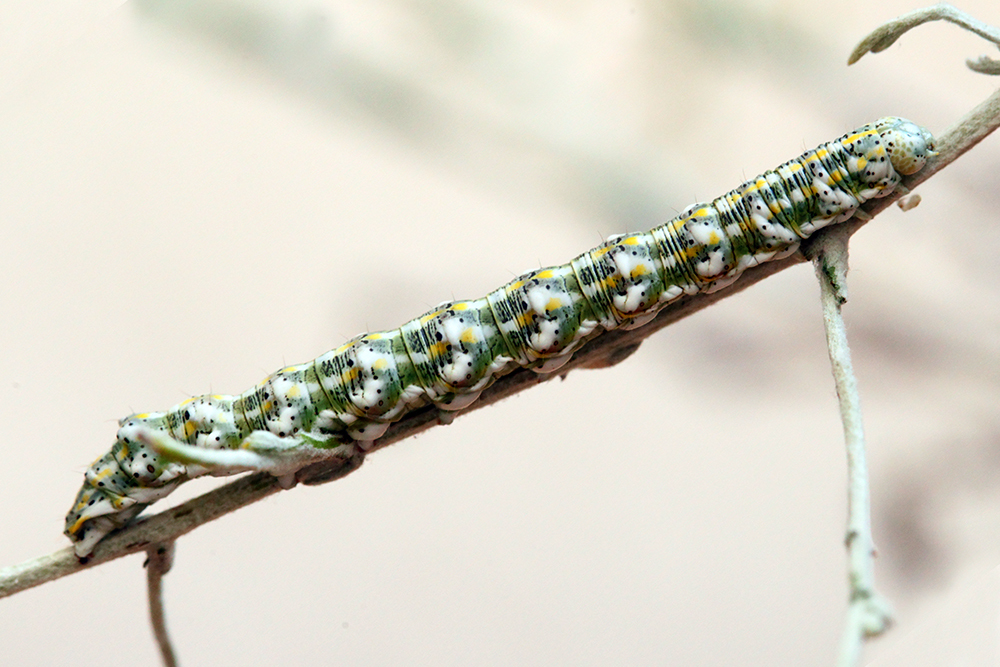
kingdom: Animalia
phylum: Arthropoda
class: Insecta
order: Lepidoptera
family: Noctuidae
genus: Cucullia
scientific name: Cucullia argentina
